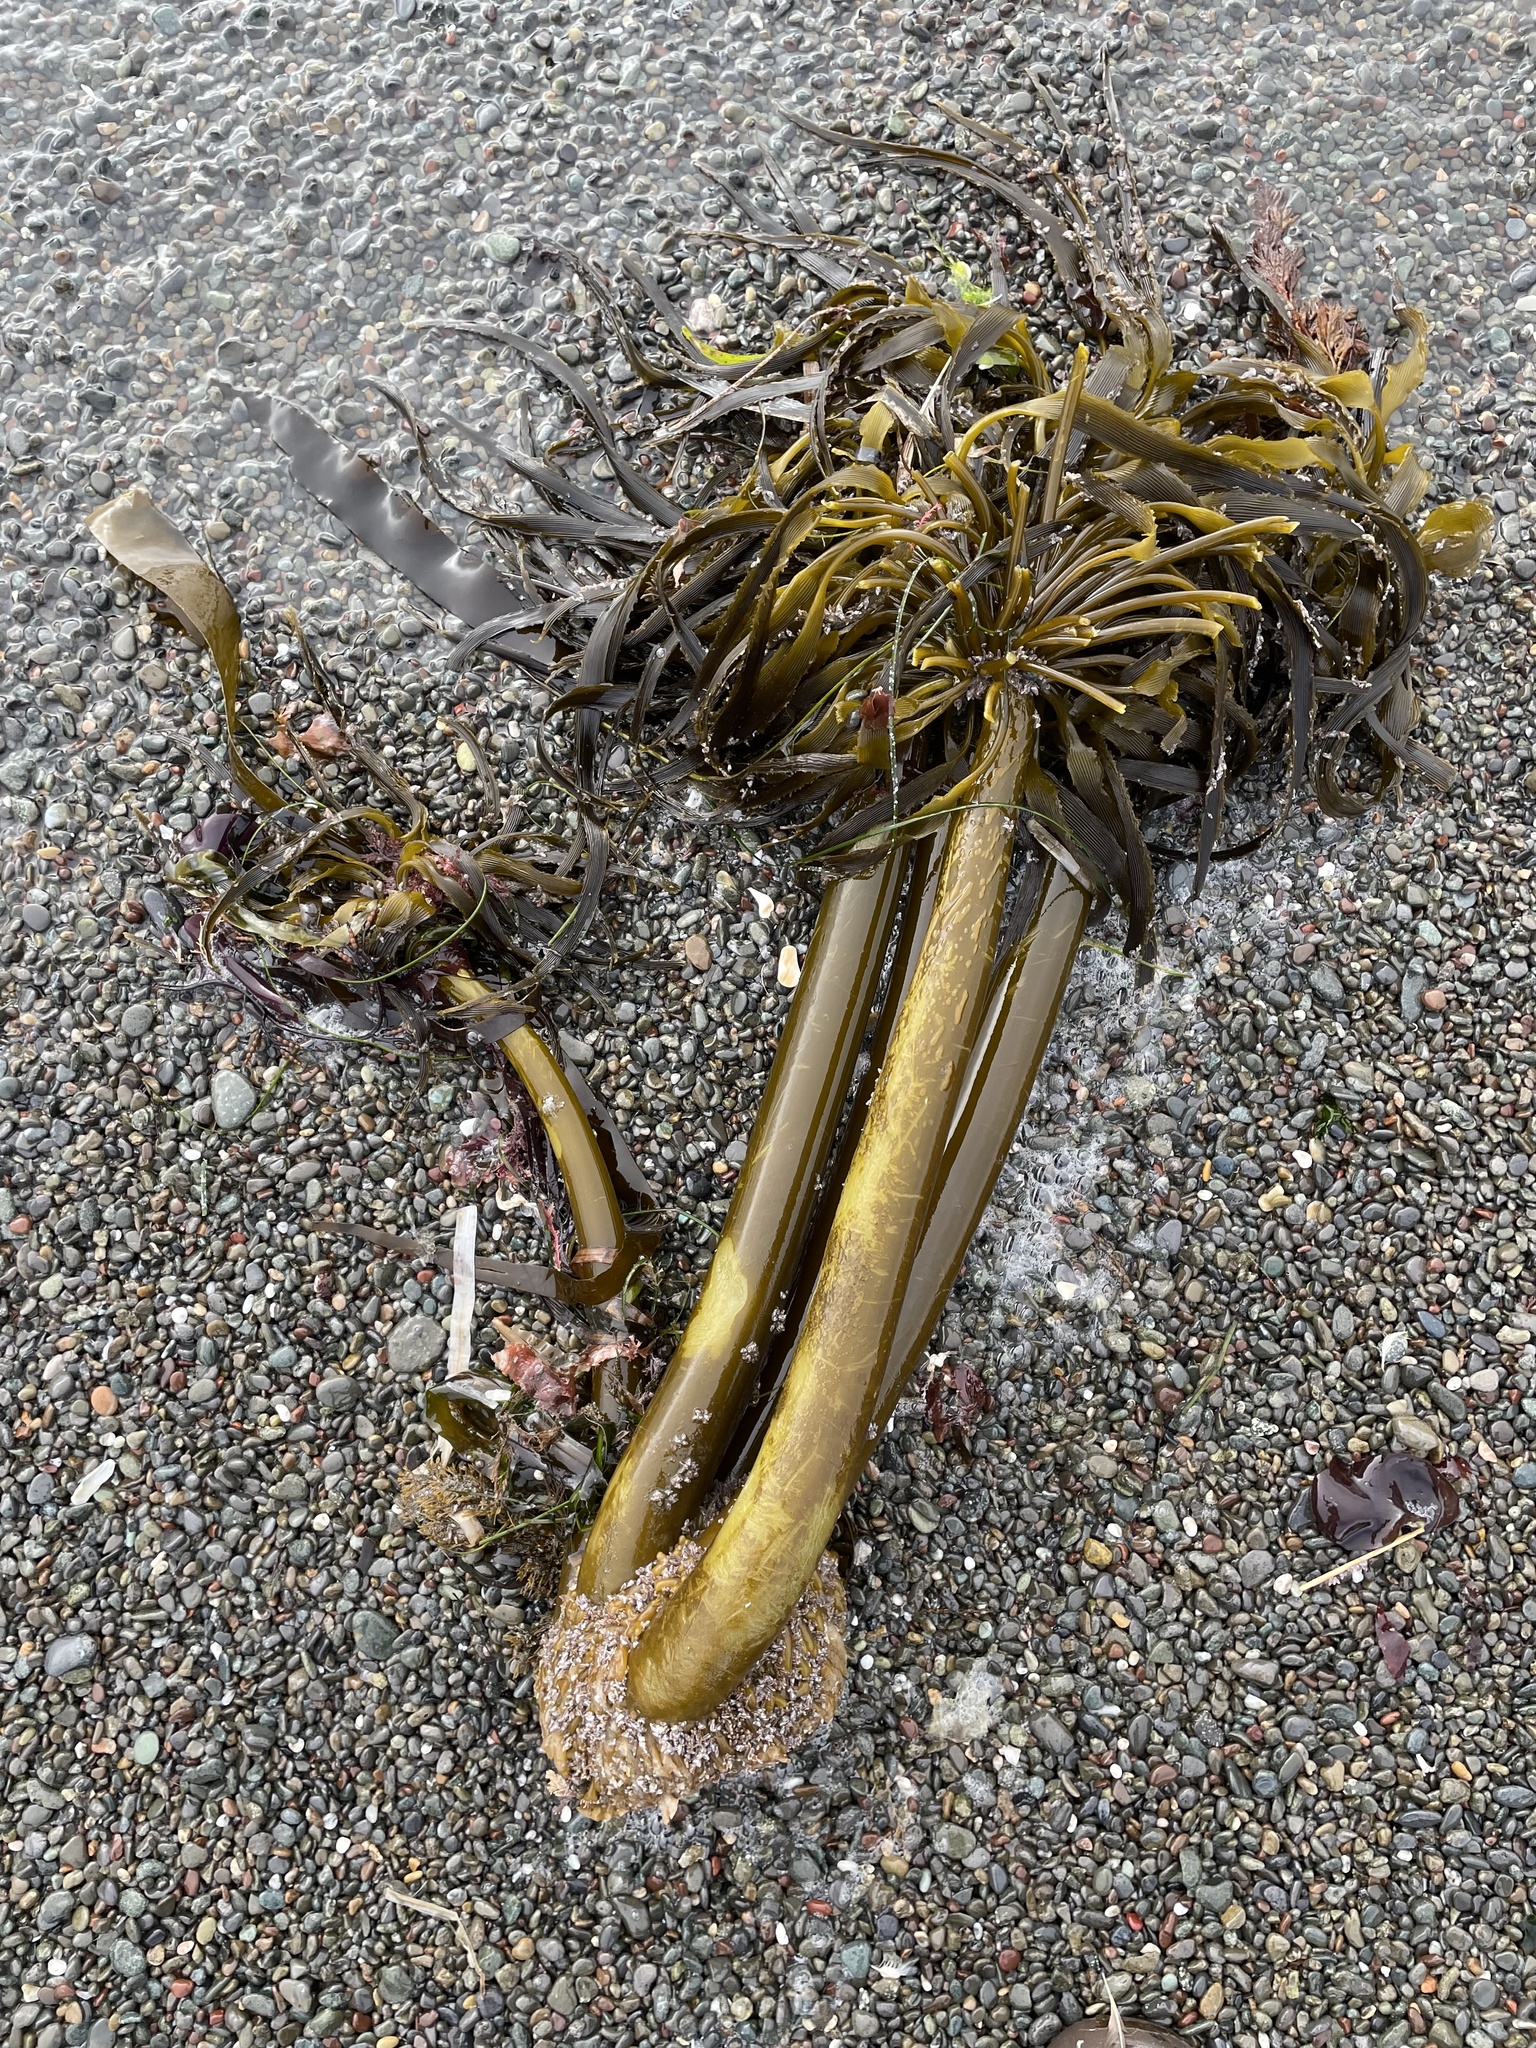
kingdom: Chromista
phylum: Ochrophyta
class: Phaeophyceae
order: Laminariales
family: Laminariaceae
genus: Postelsia
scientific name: Postelsia palmiformis
